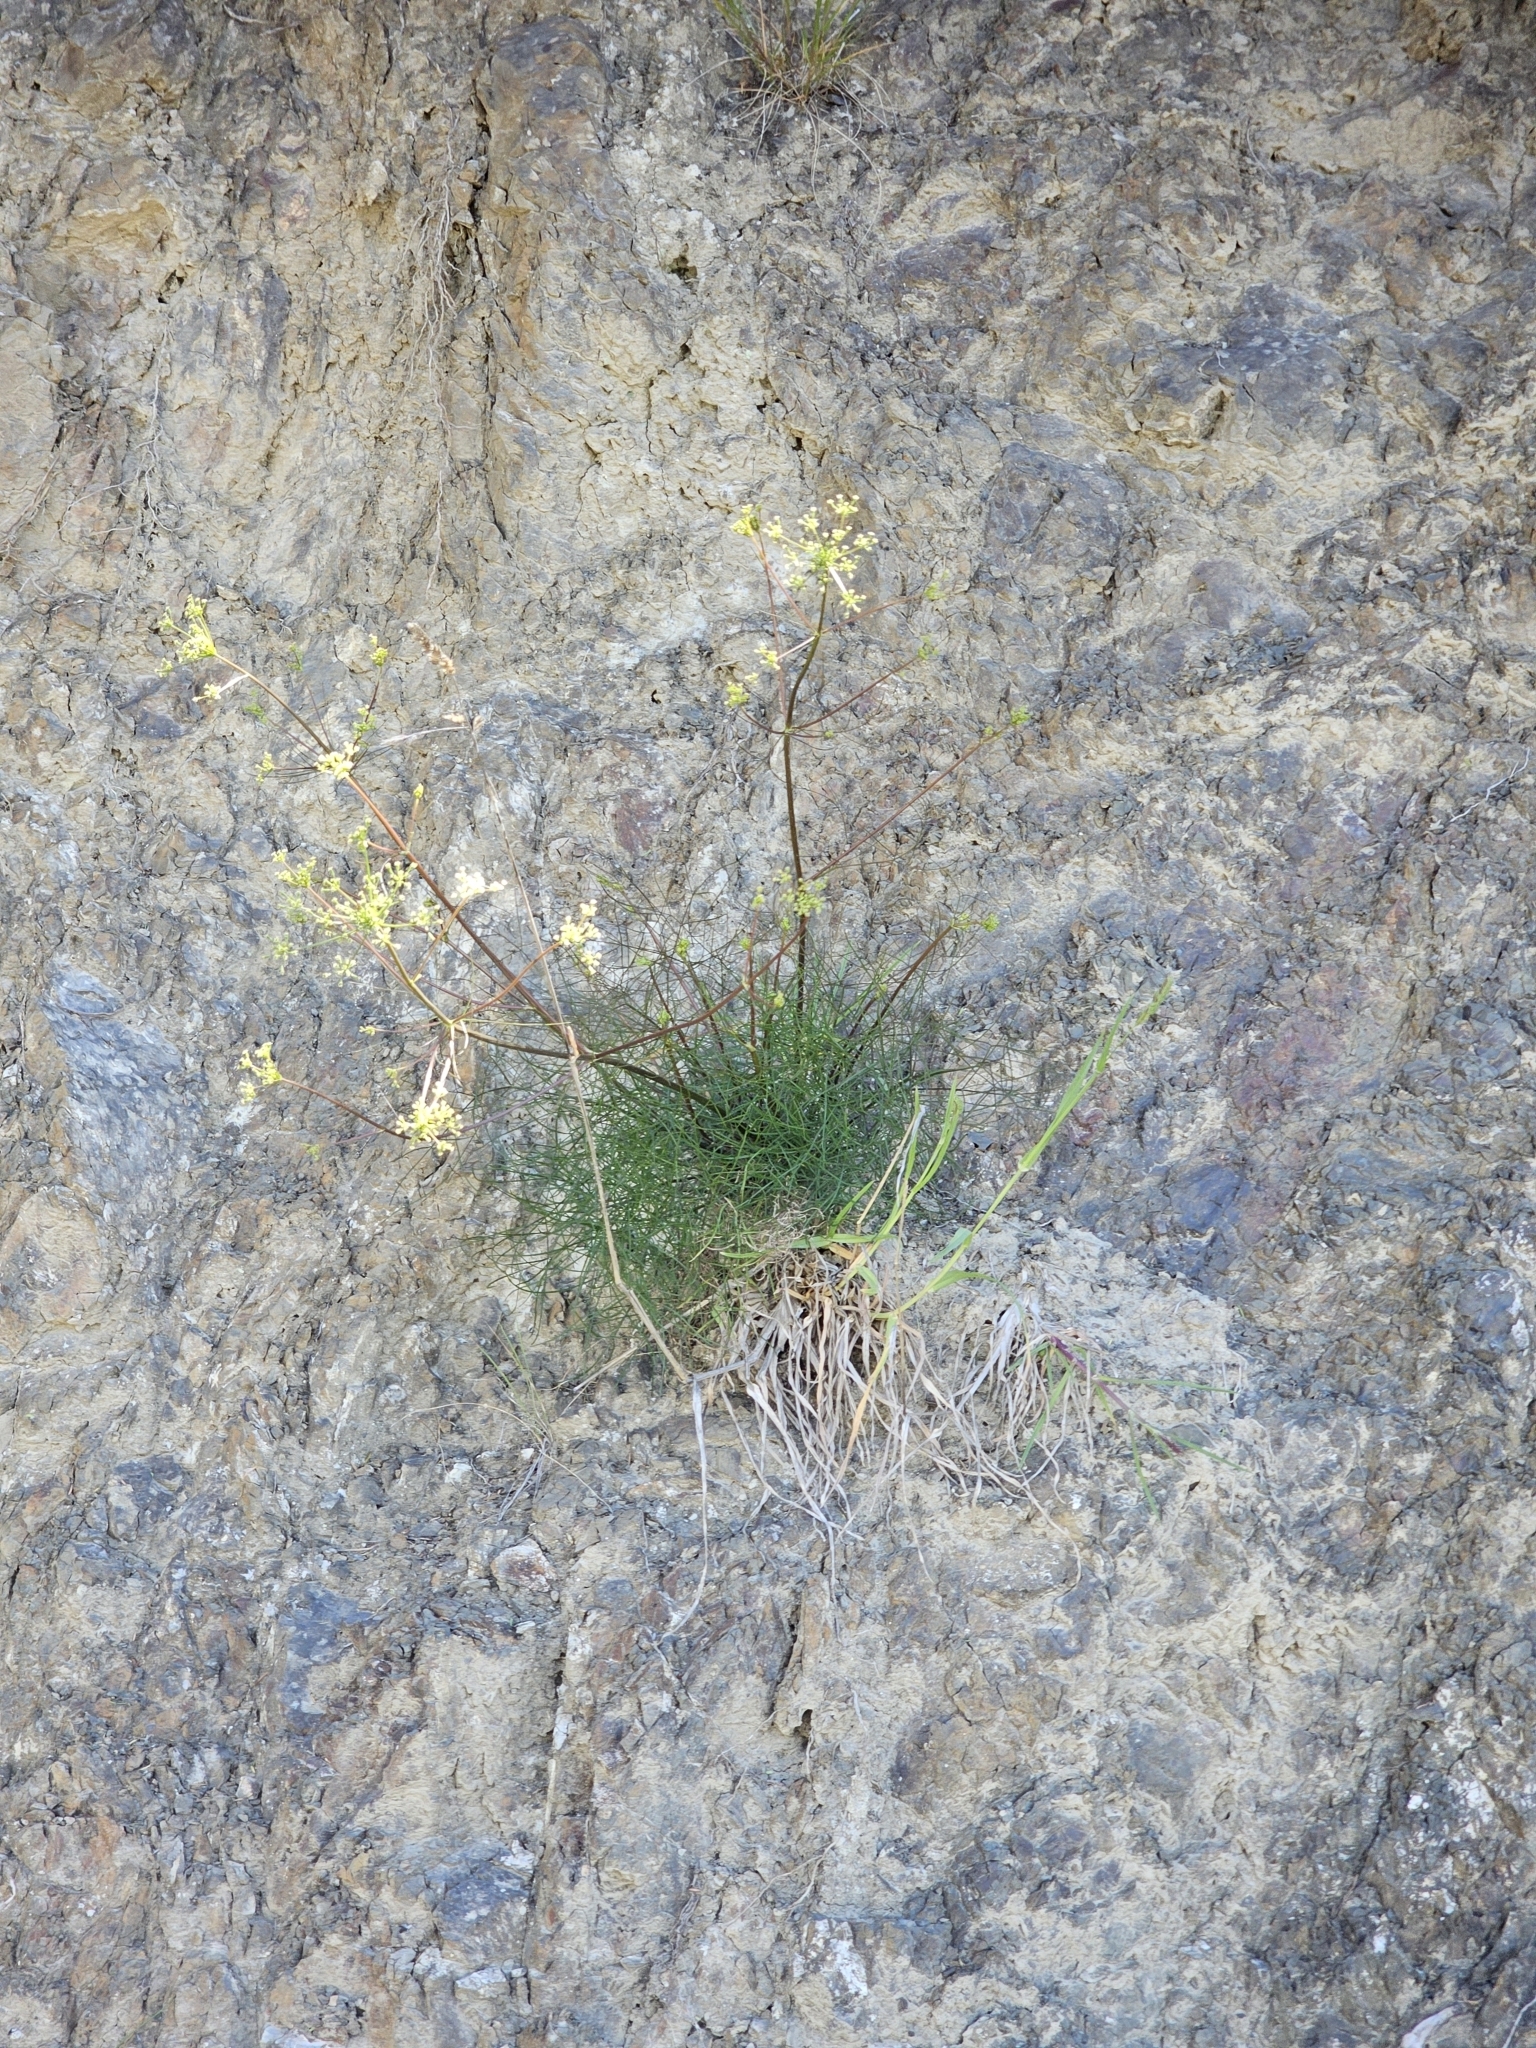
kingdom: Plantae
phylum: Tracheophyta
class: Magnoliopsida
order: Apiales
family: Apiaceae
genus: Anisotome
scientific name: Anisotome filifolia
